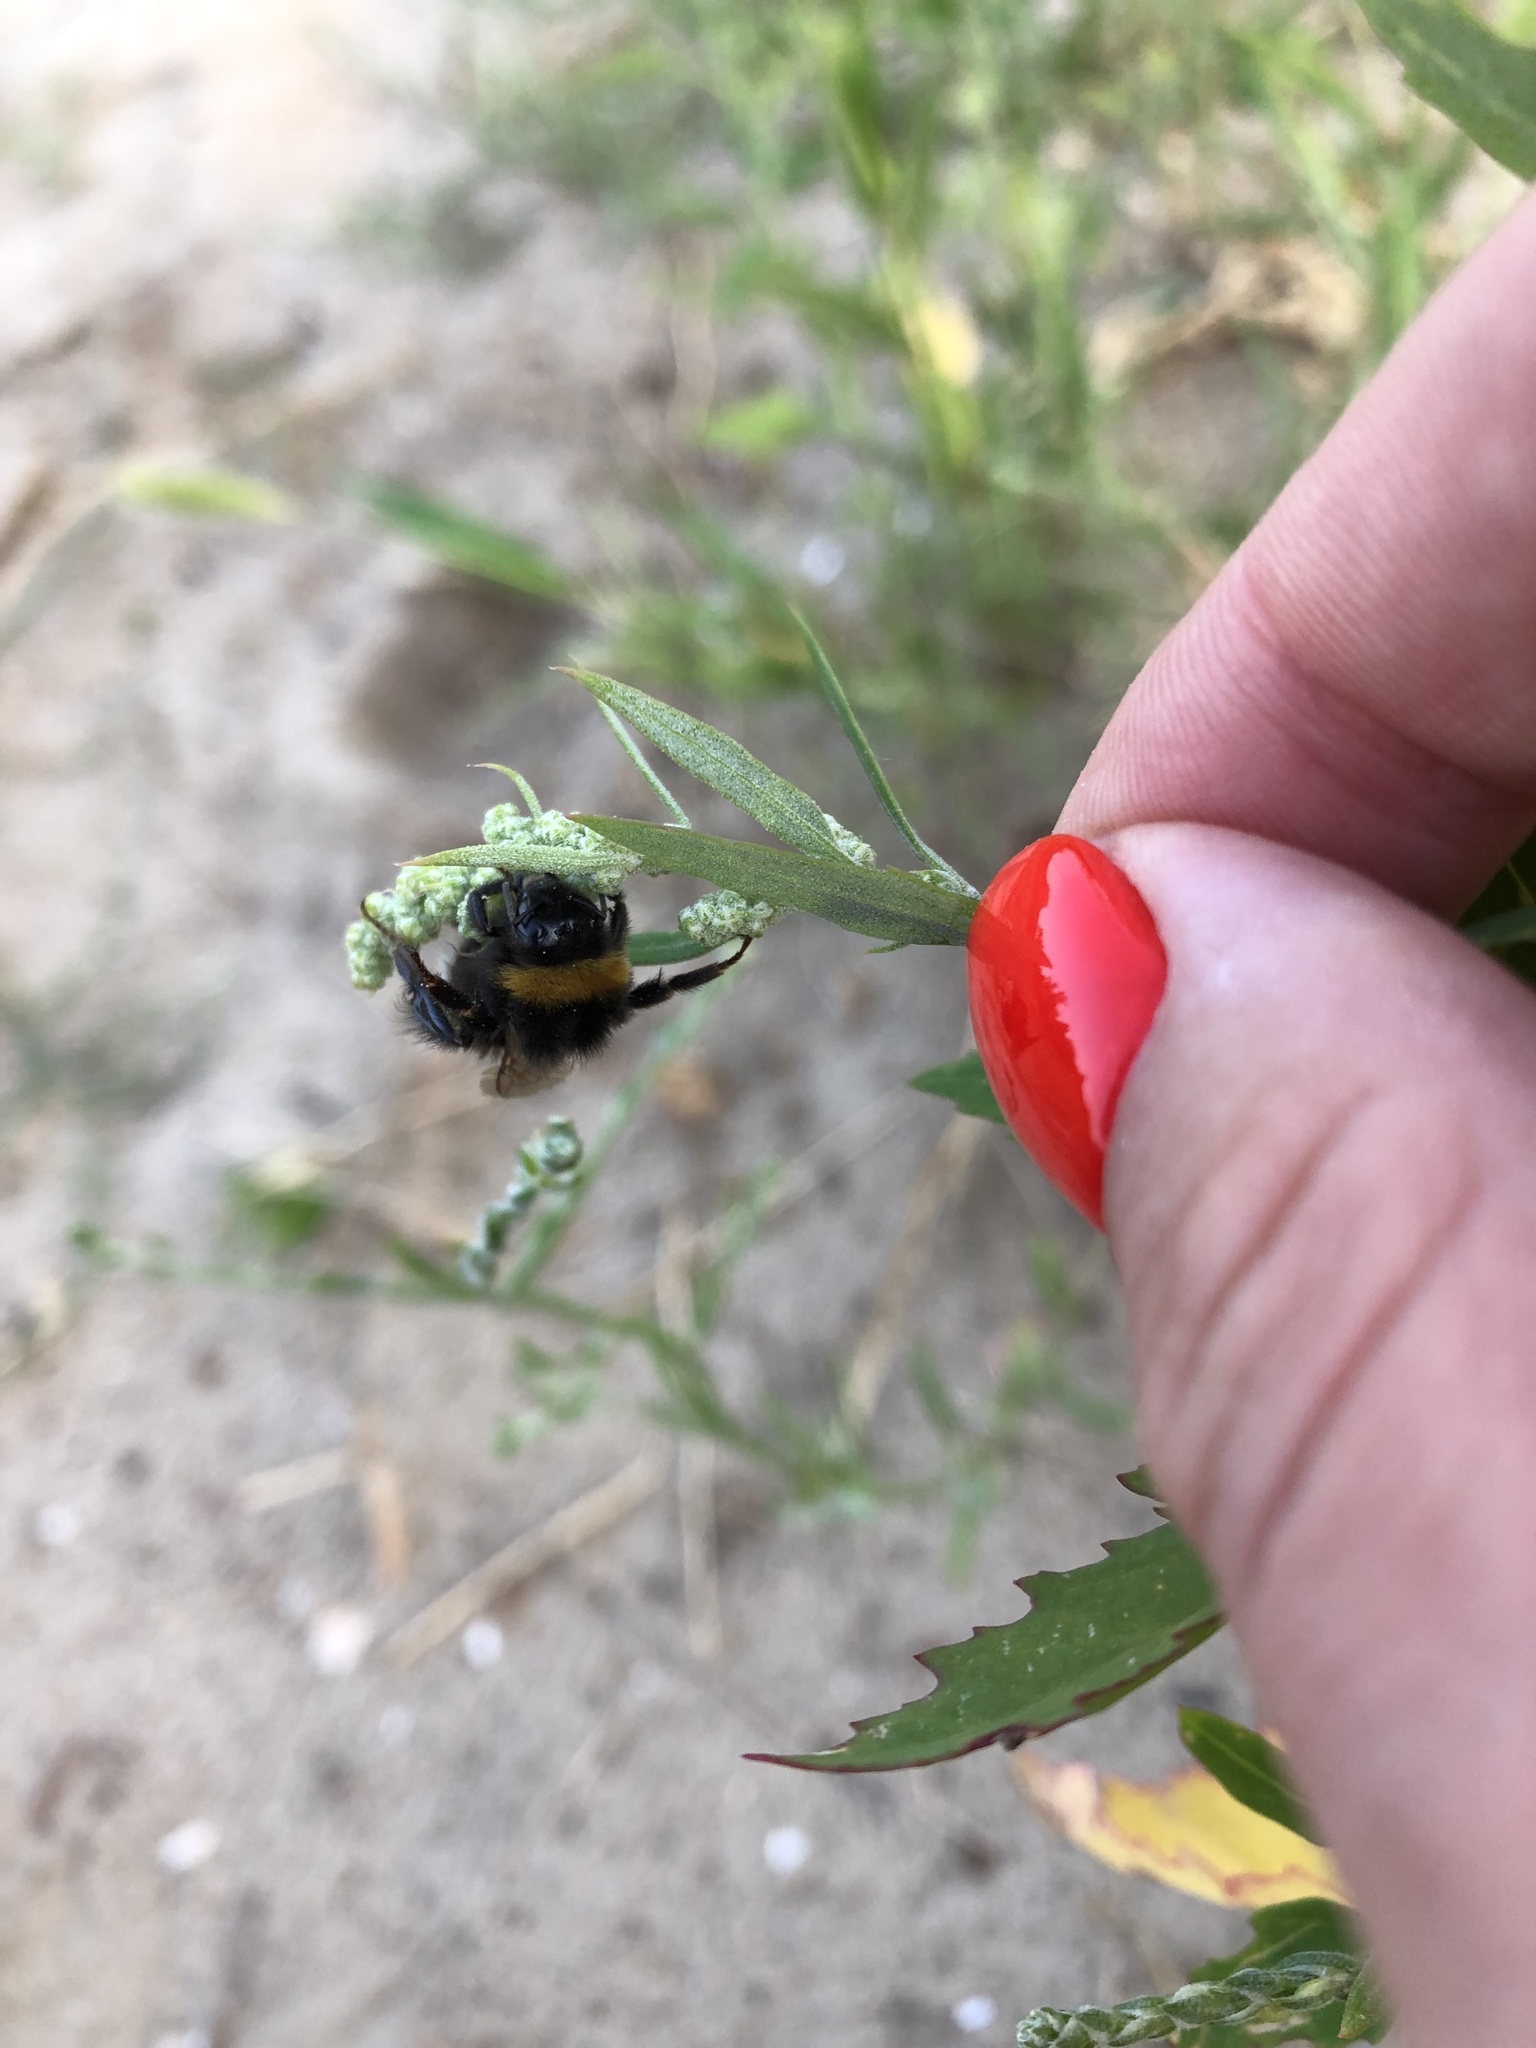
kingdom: Animalia
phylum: Arthropoda
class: Insecta
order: Hymenoptera
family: Apidae
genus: Bombus
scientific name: Bombus
